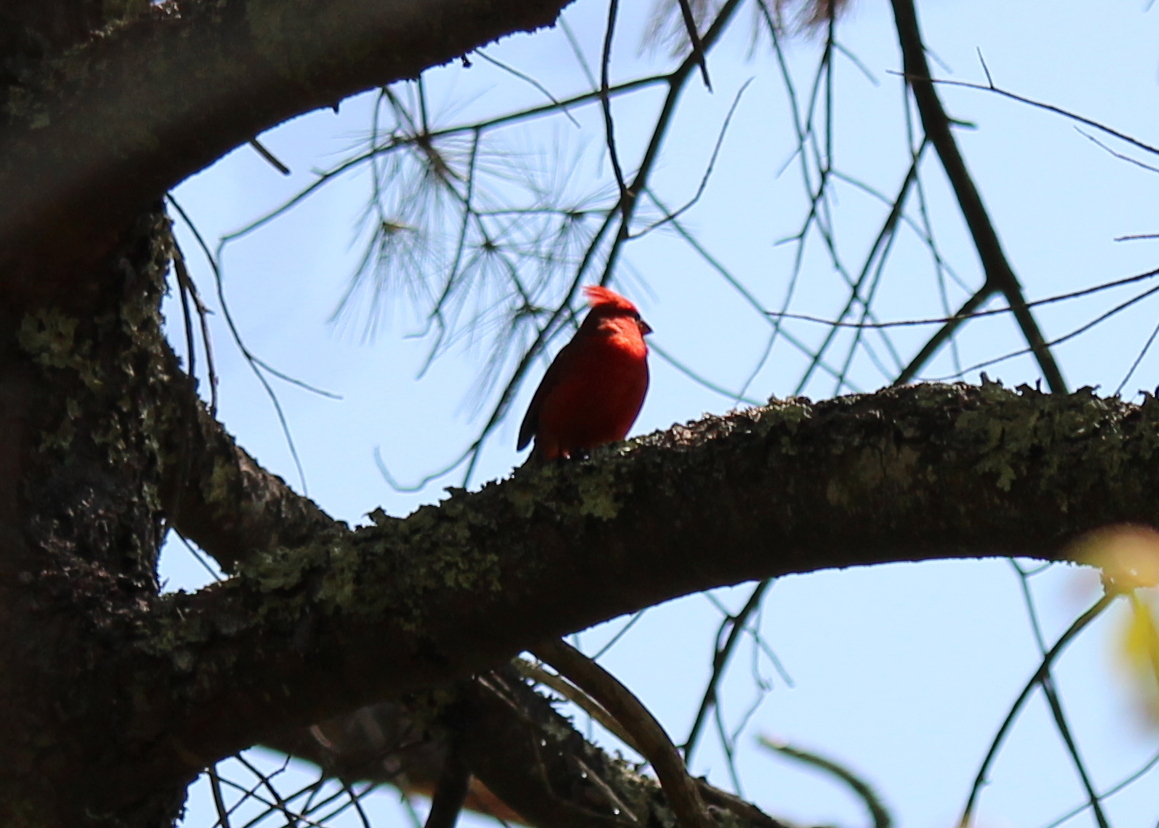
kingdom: Animalia
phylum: Chordata
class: Aves
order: Passeriformes
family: Cardinalidae
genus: Cardinalis
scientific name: Cardinalis cardinalis
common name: Northern cardinal
